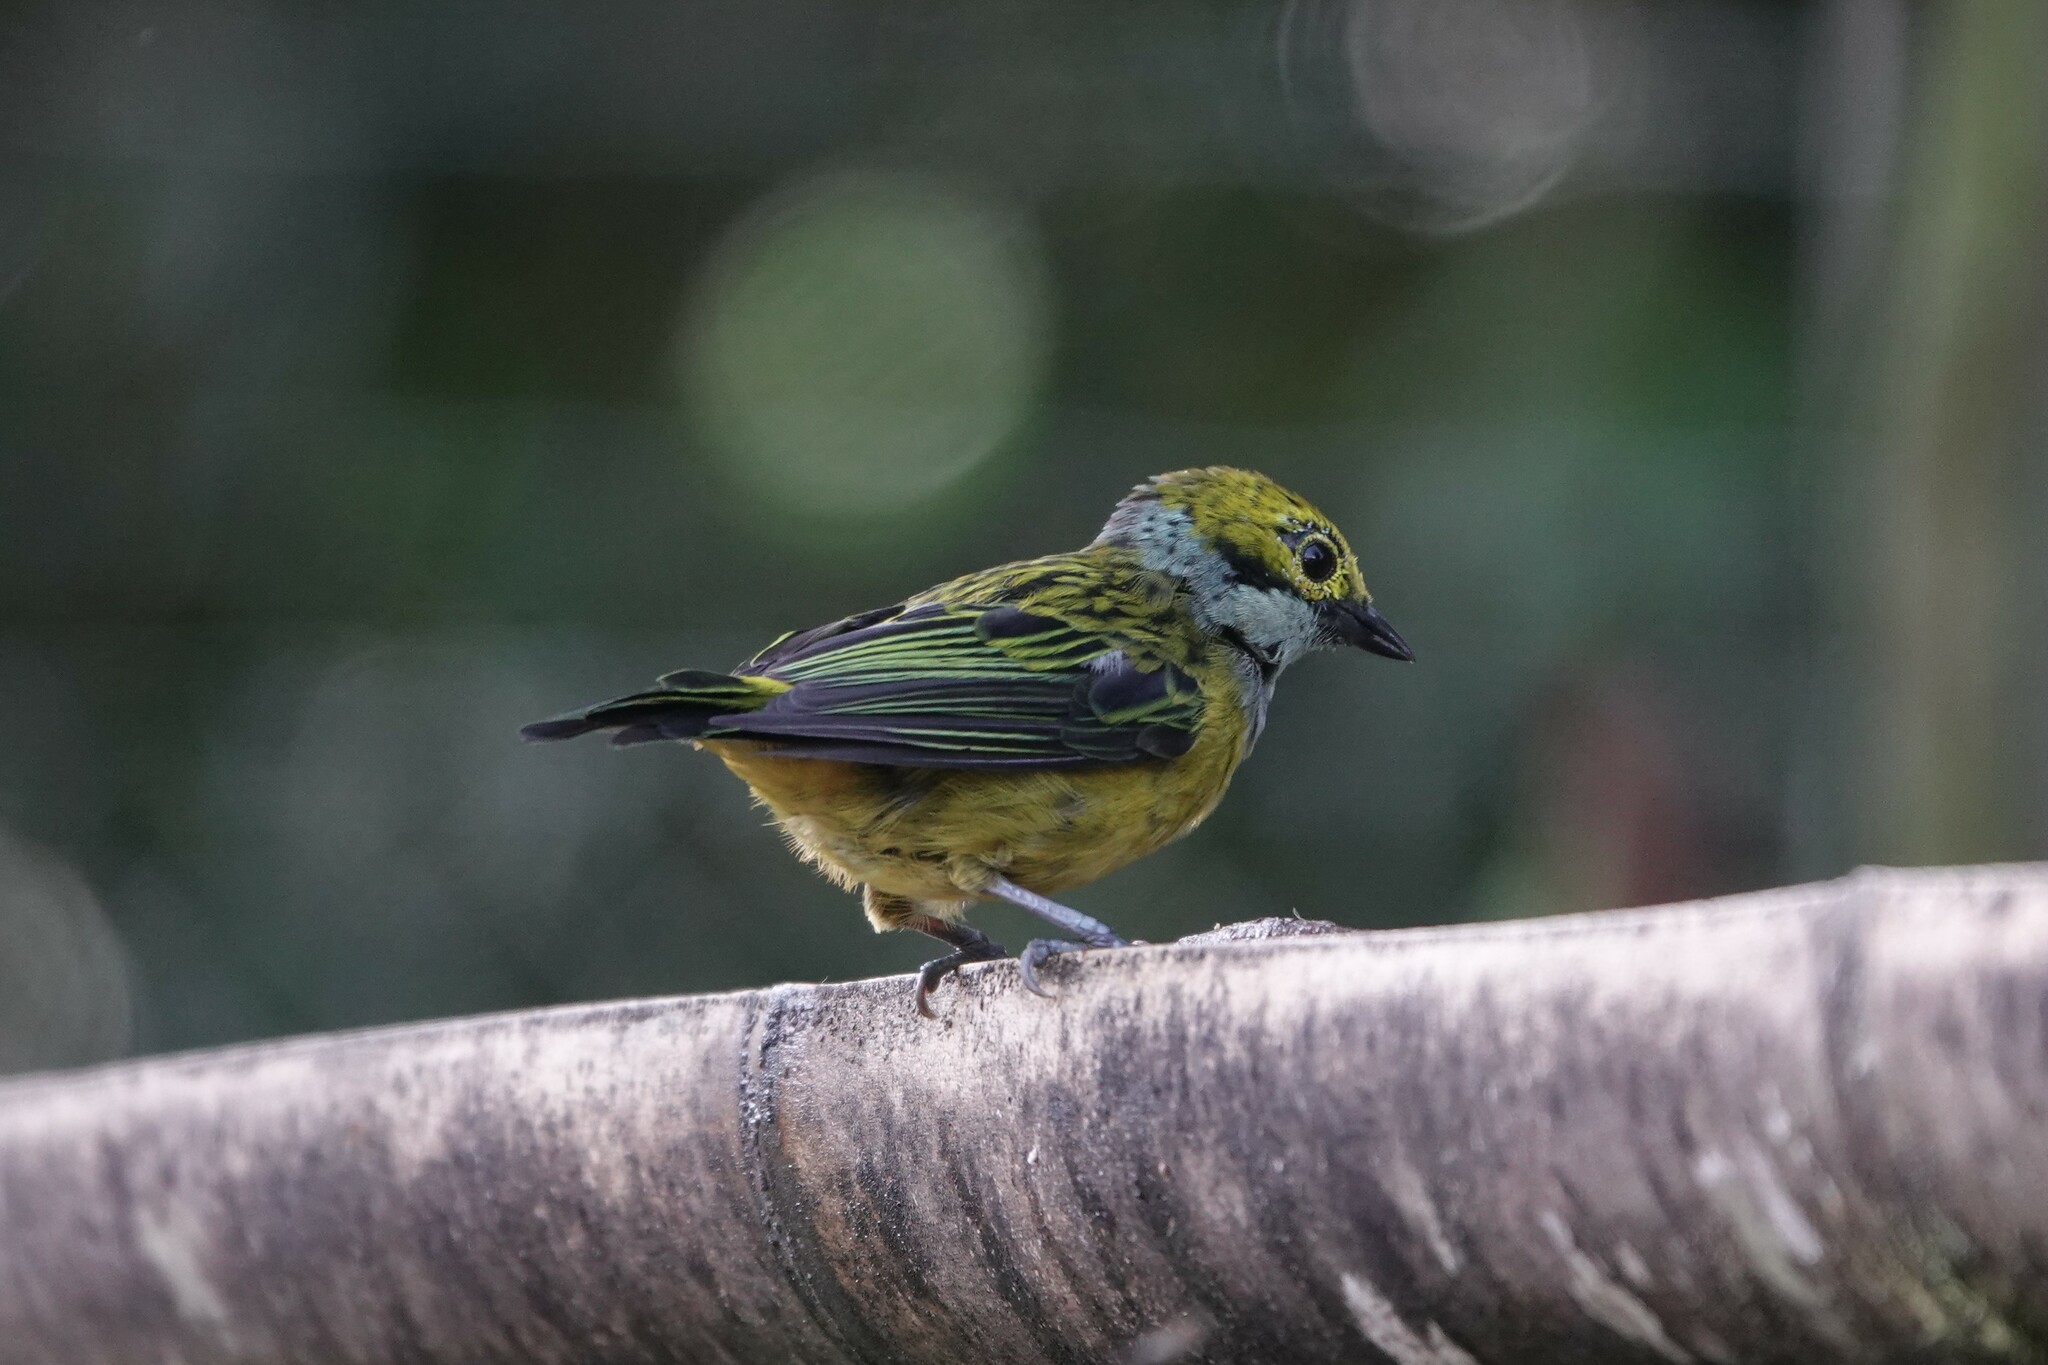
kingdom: Animalia
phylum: Chordata
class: Aves
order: Passeriformes
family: Thraupidae
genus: Tangara
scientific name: Tangara icterocephala
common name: Silver-throated tanager
